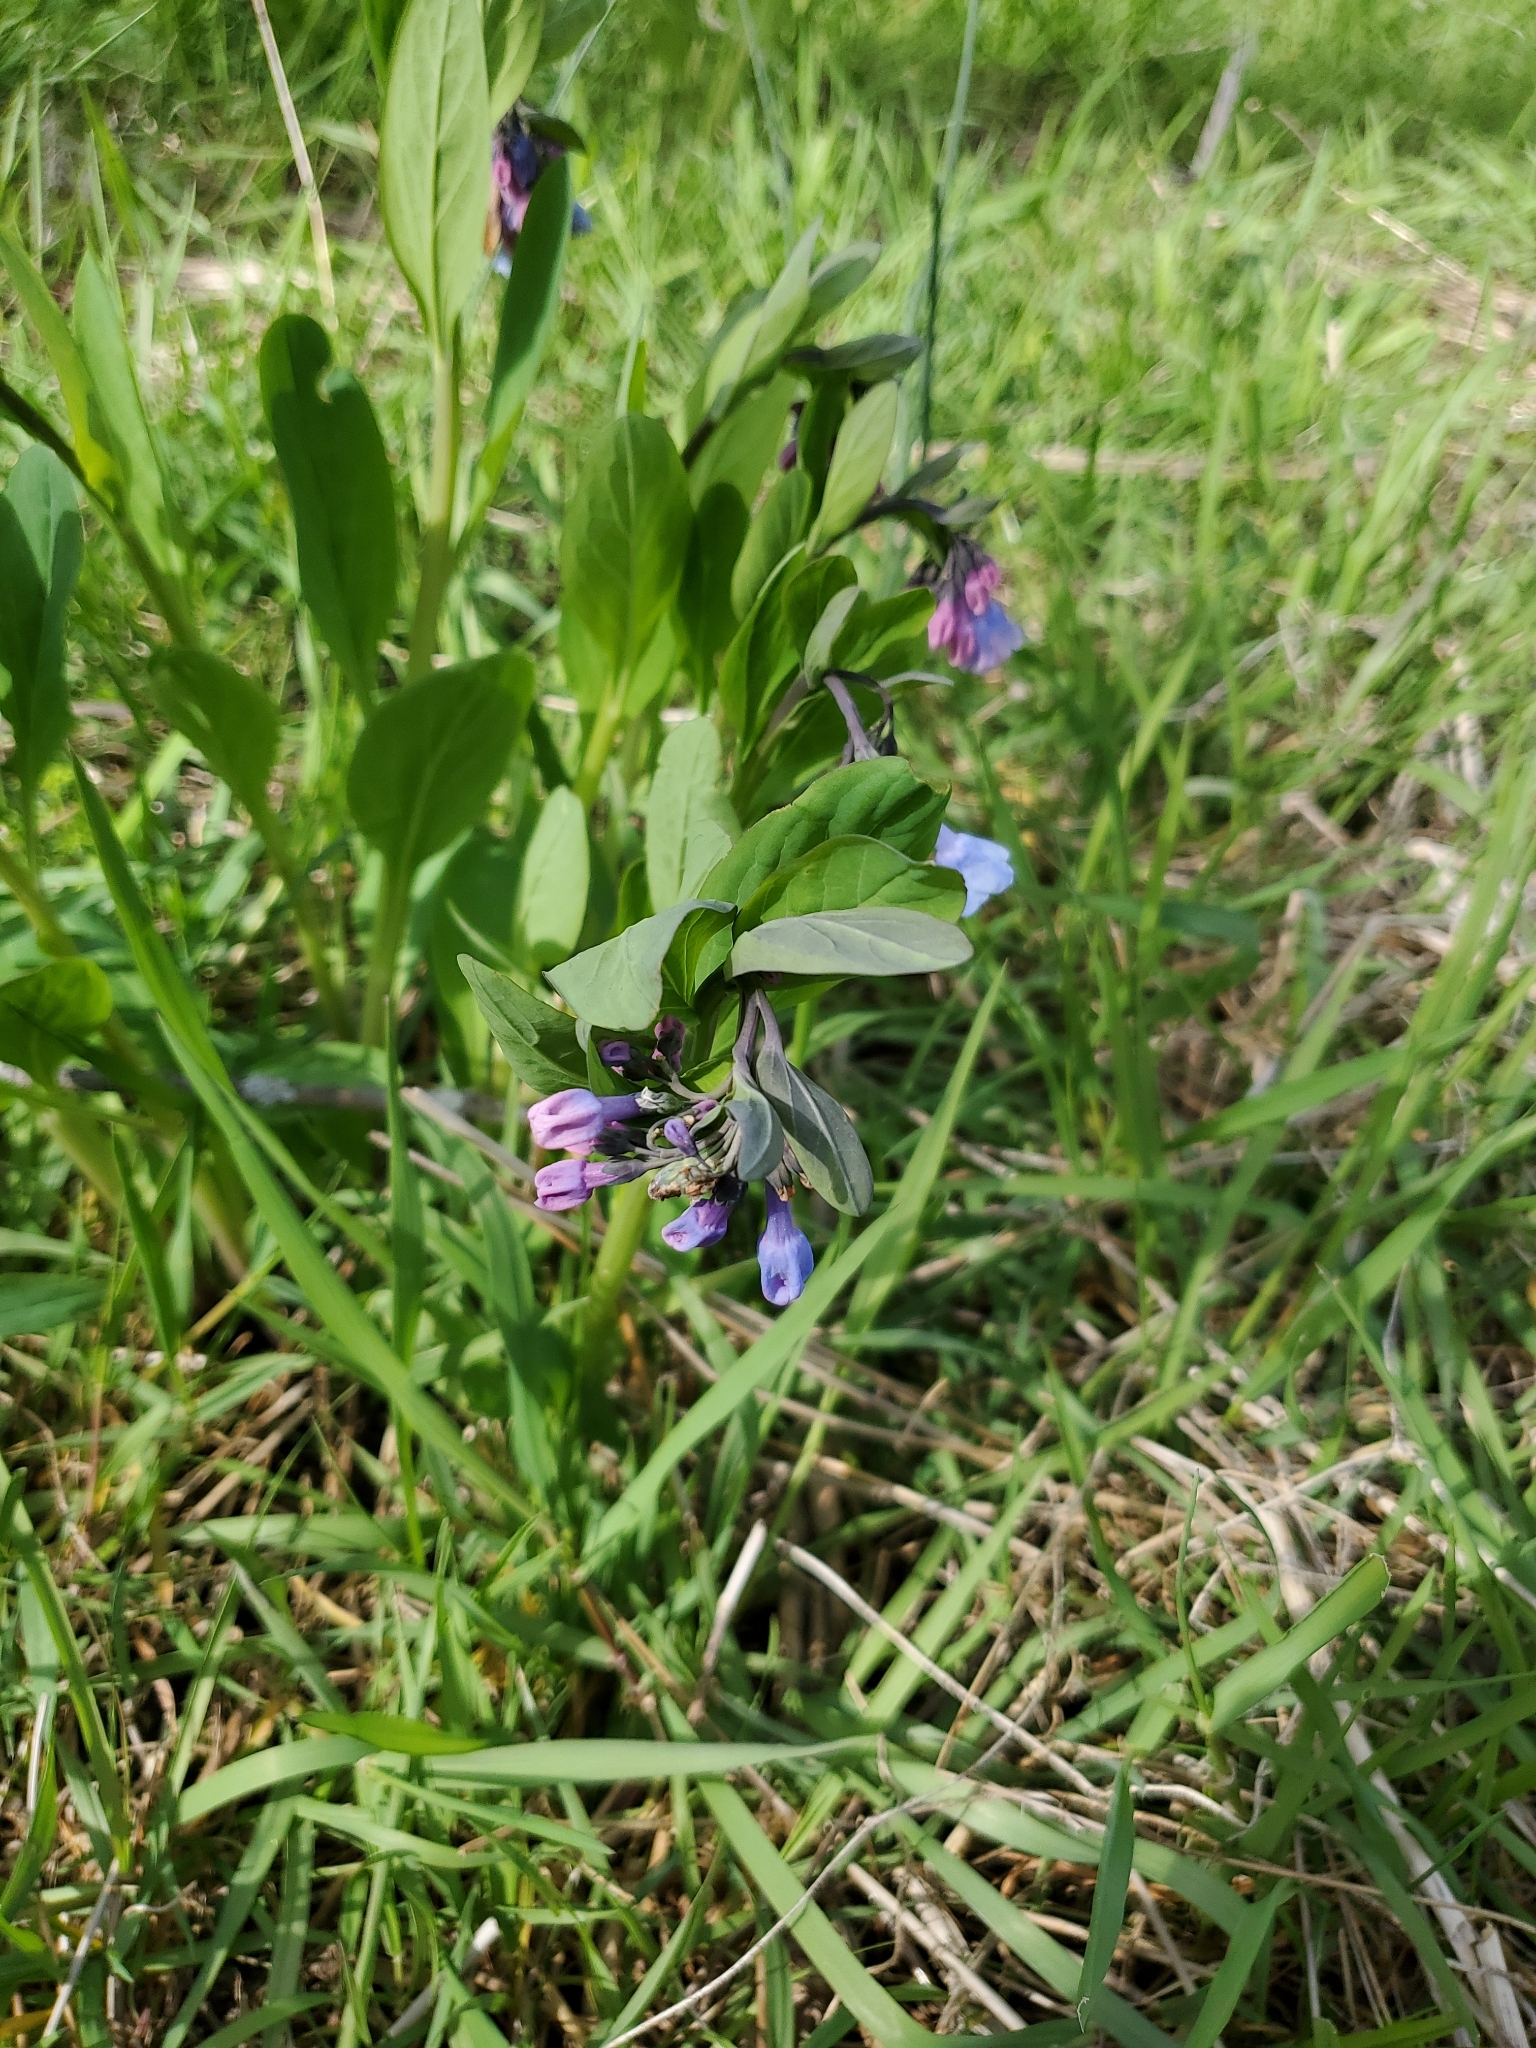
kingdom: Plantae
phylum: Tracheophyta
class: Magnoliopsida
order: Boraginales
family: Boraginaceae
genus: Mertensia
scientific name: Mertensia virginica
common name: Virginia bluebells
